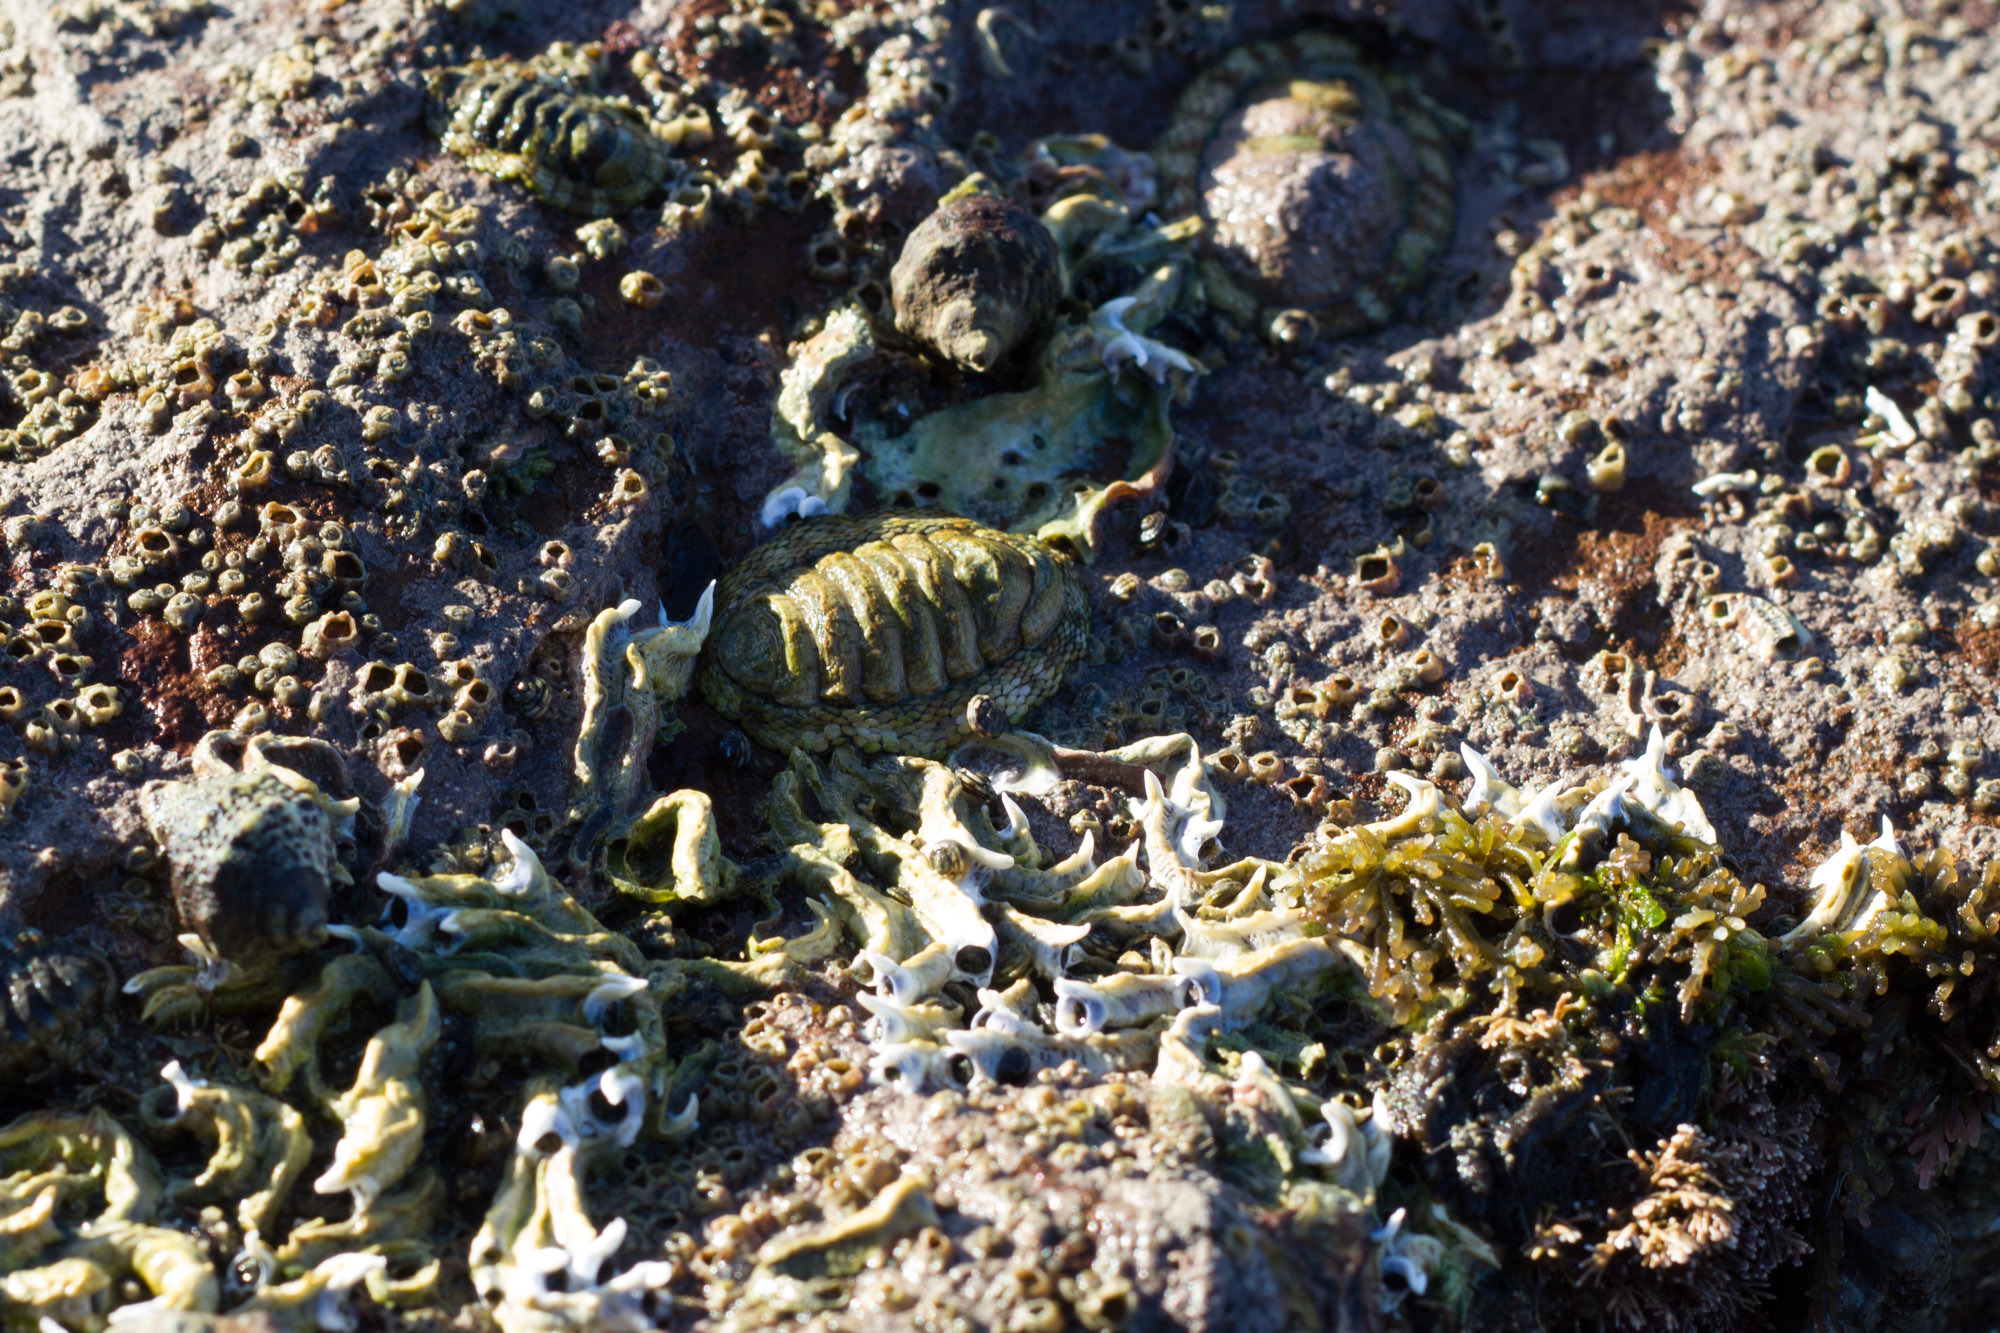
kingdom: Animalia
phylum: Mollusca
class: Gastropoda
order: Neogastropoda
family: Muricidae
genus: Haustrum
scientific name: Haustrum scobina
